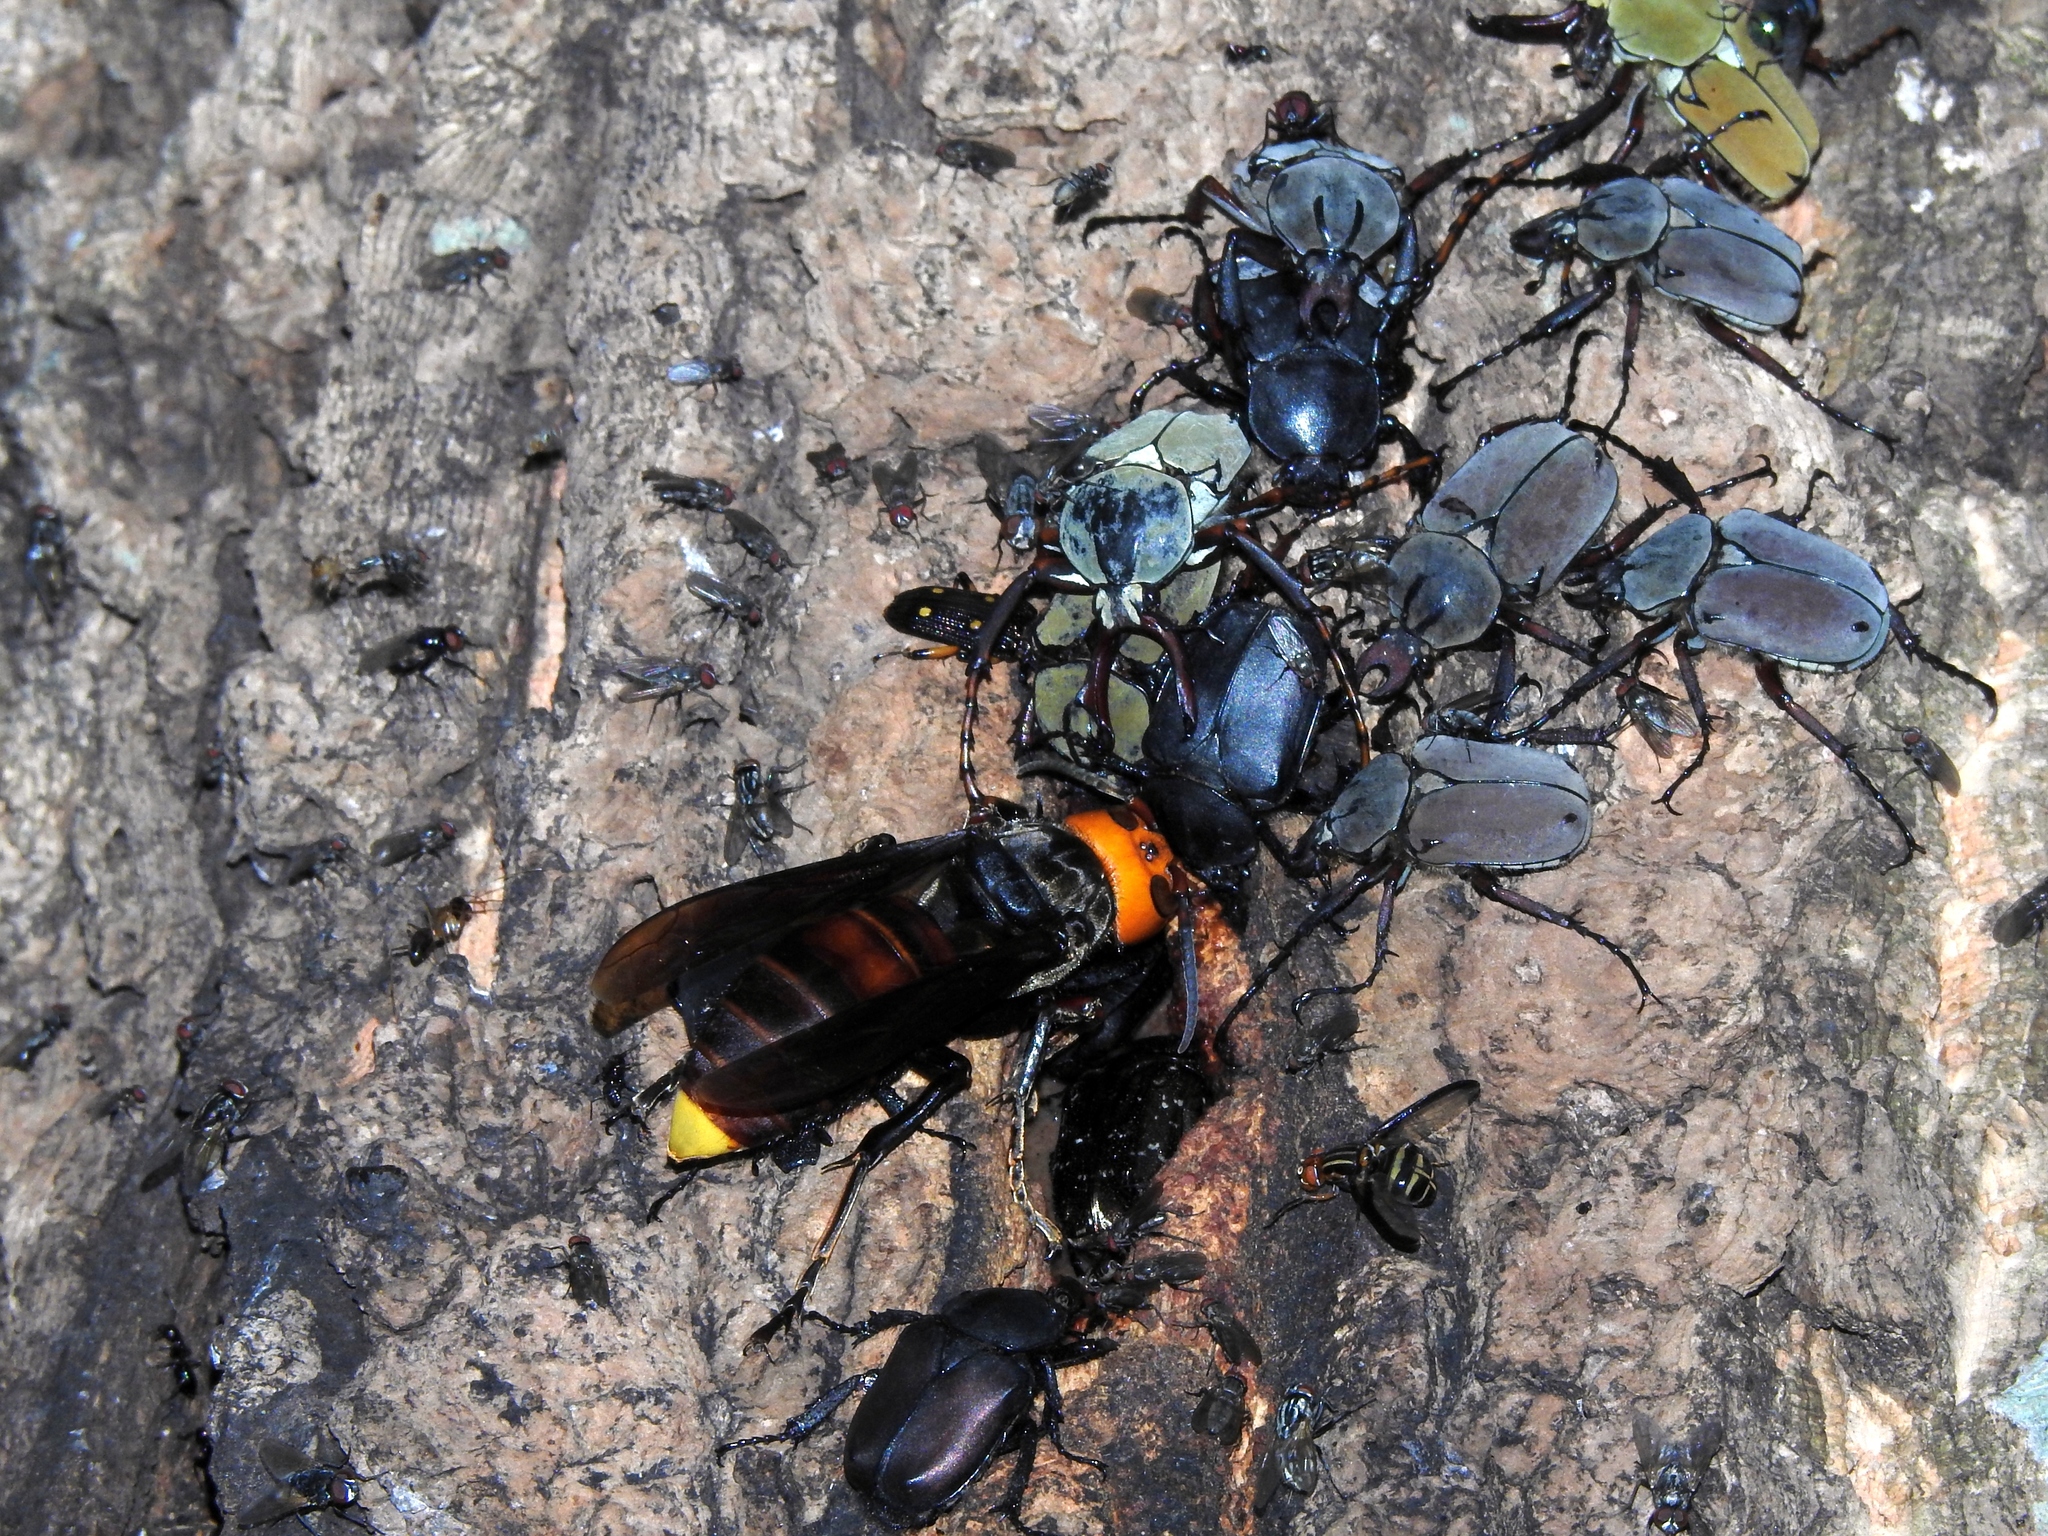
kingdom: Animalia
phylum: Arthropoda
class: Insecta
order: Hymenoptera
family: Vespidae
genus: Vespa
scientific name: Vespa mandarinia
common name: Asian giant hornet
